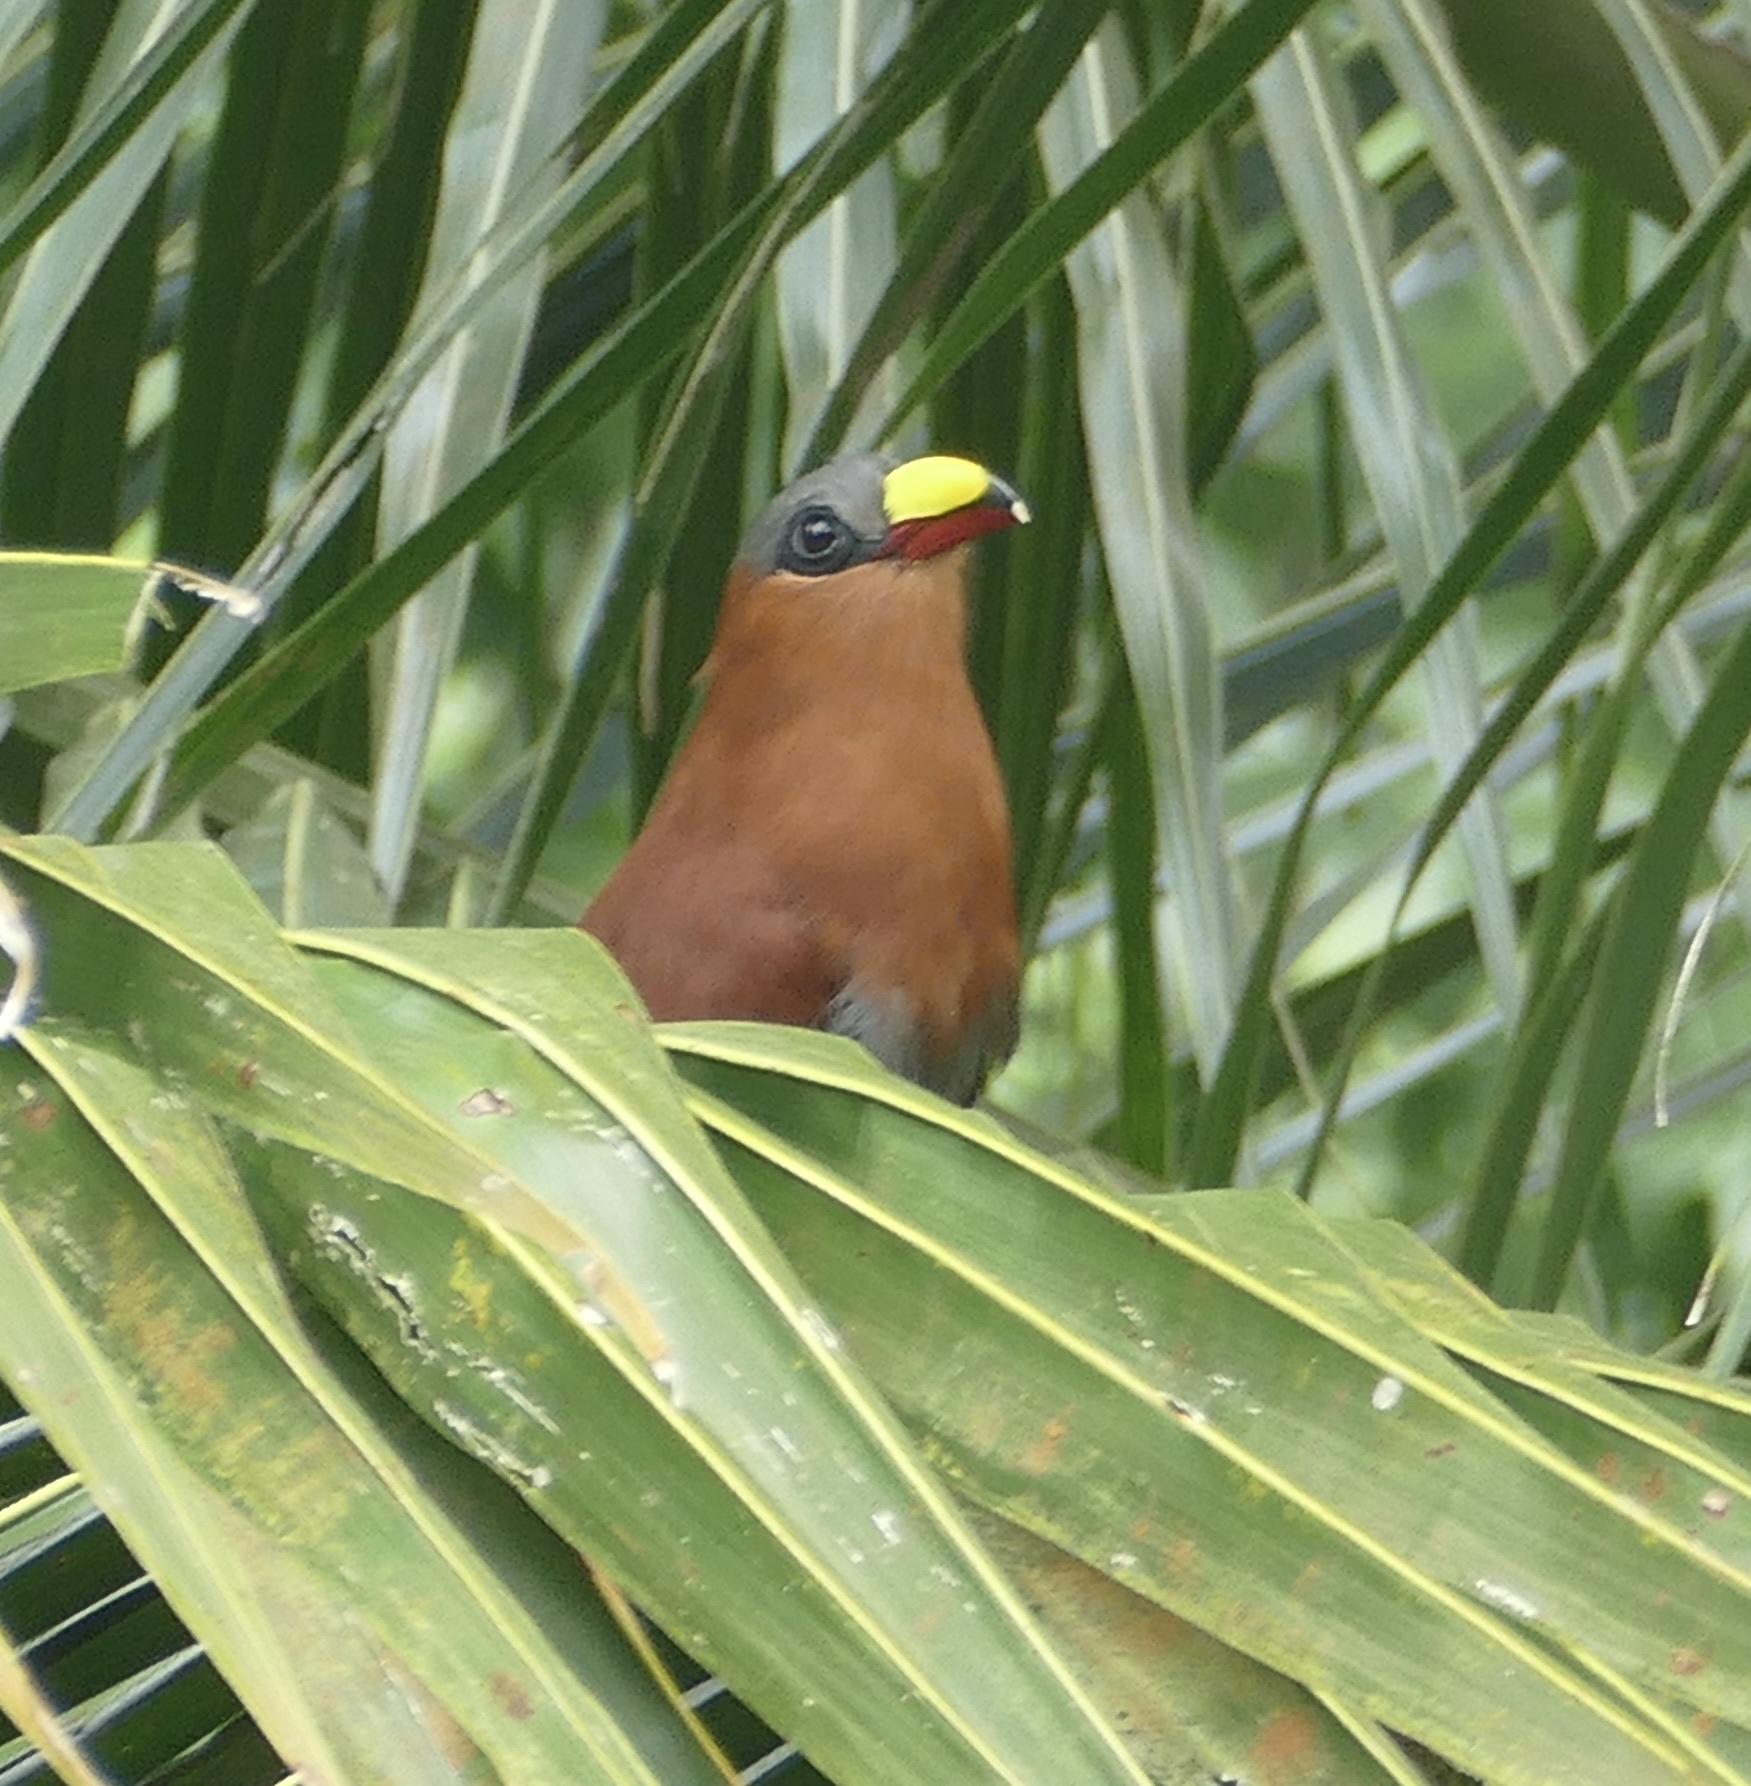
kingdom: Animalia
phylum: Chordata
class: Aves
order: Cuculiformes
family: Cuculidae
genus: Zanclostomus
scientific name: Zanclostomus calyorhynchus
